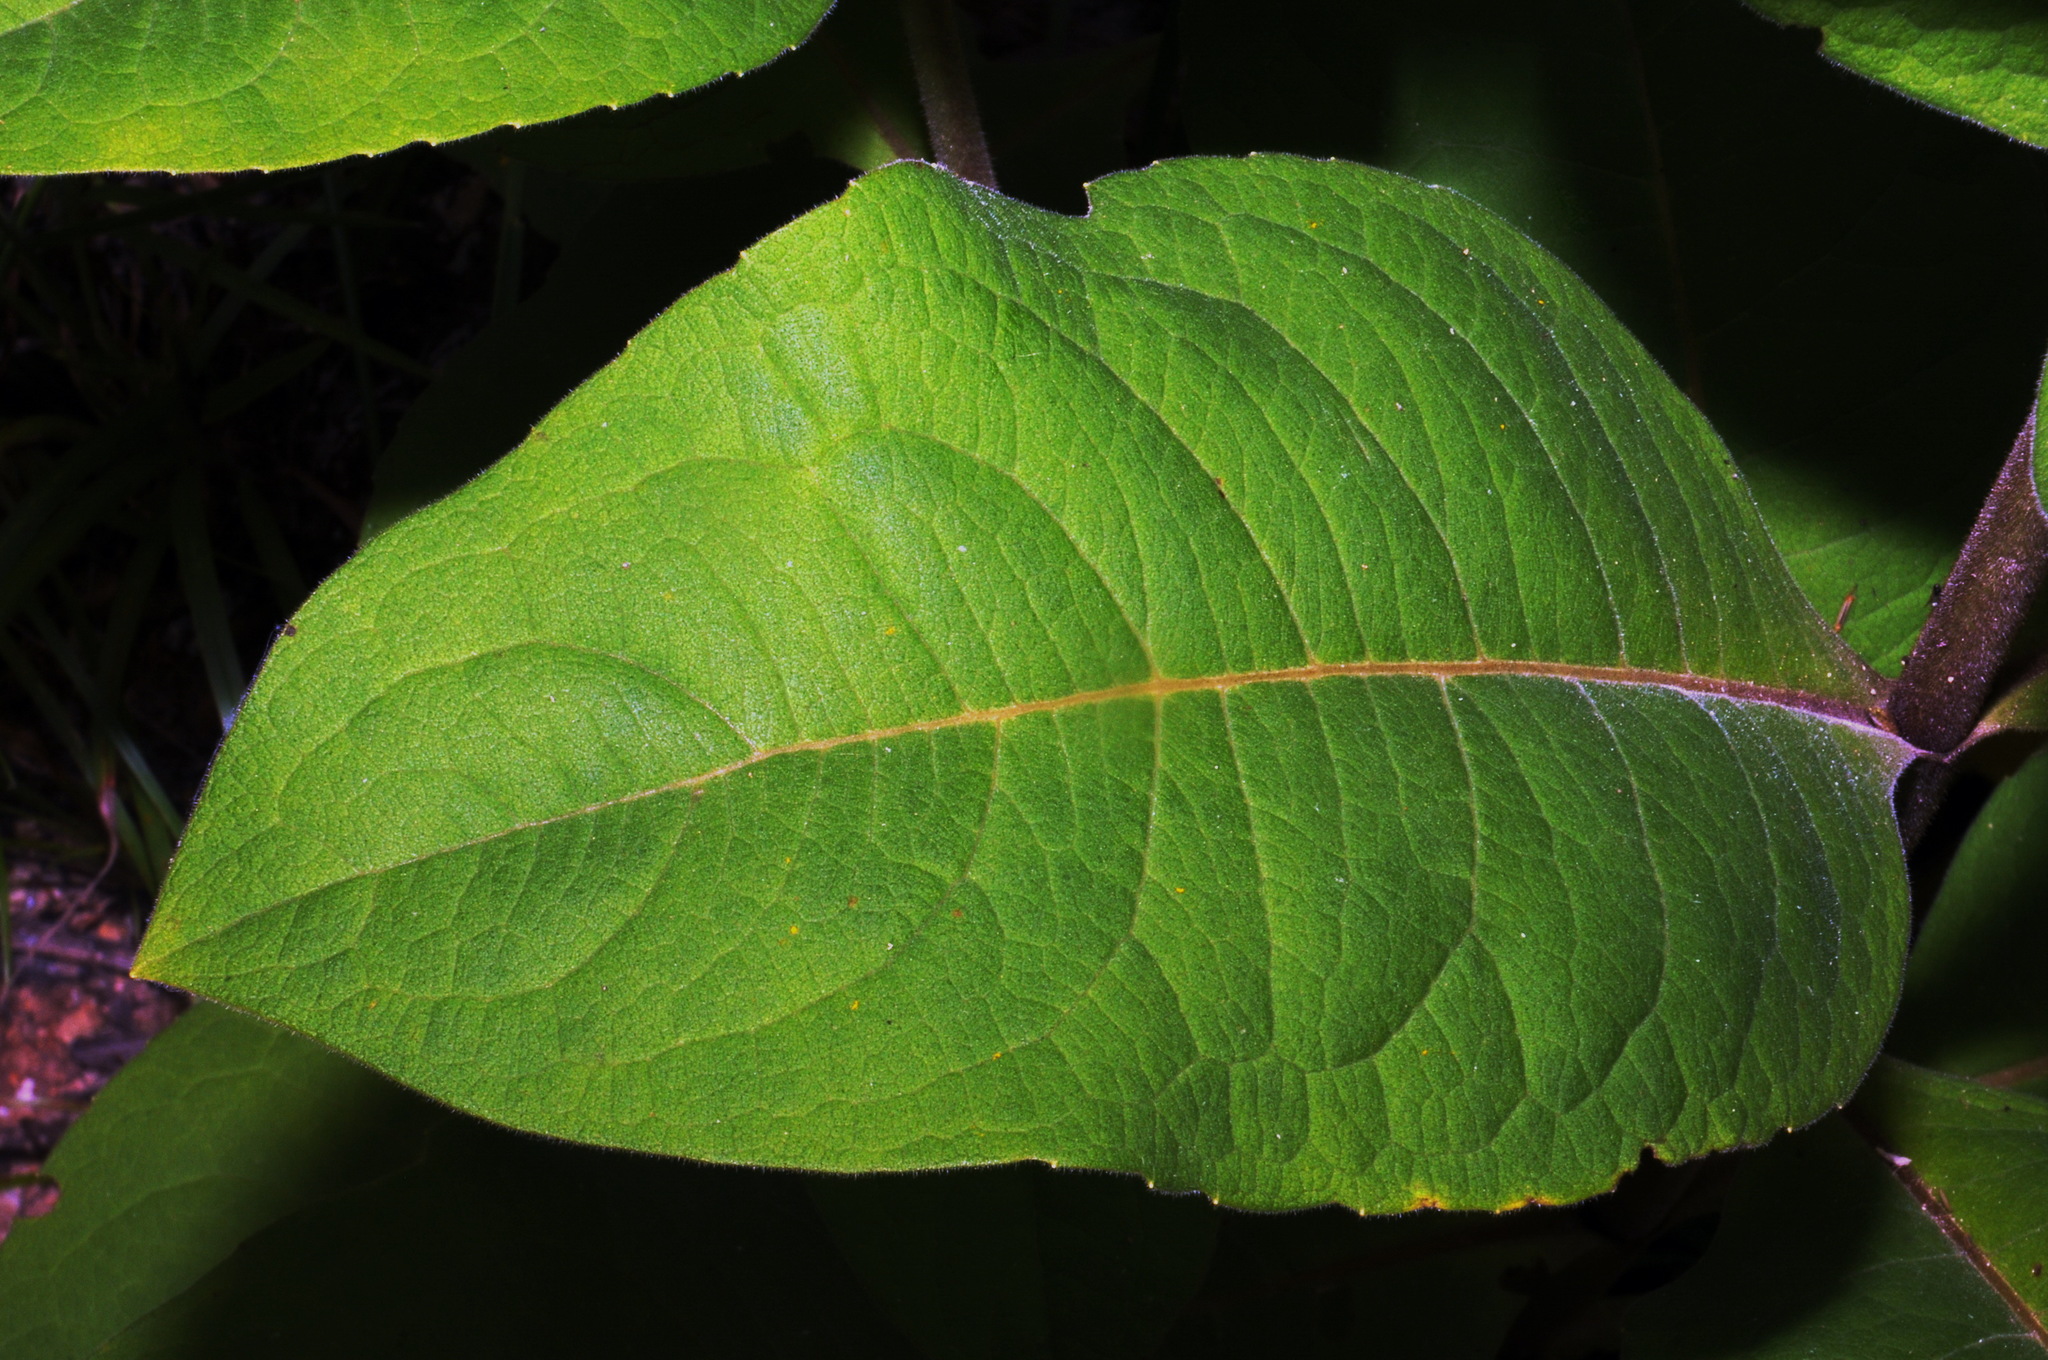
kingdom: Plantae
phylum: Tracheophyta
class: Magnoliopsida
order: Asterales
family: Asteraceae
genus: Silphium
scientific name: Silphium glutinosum
